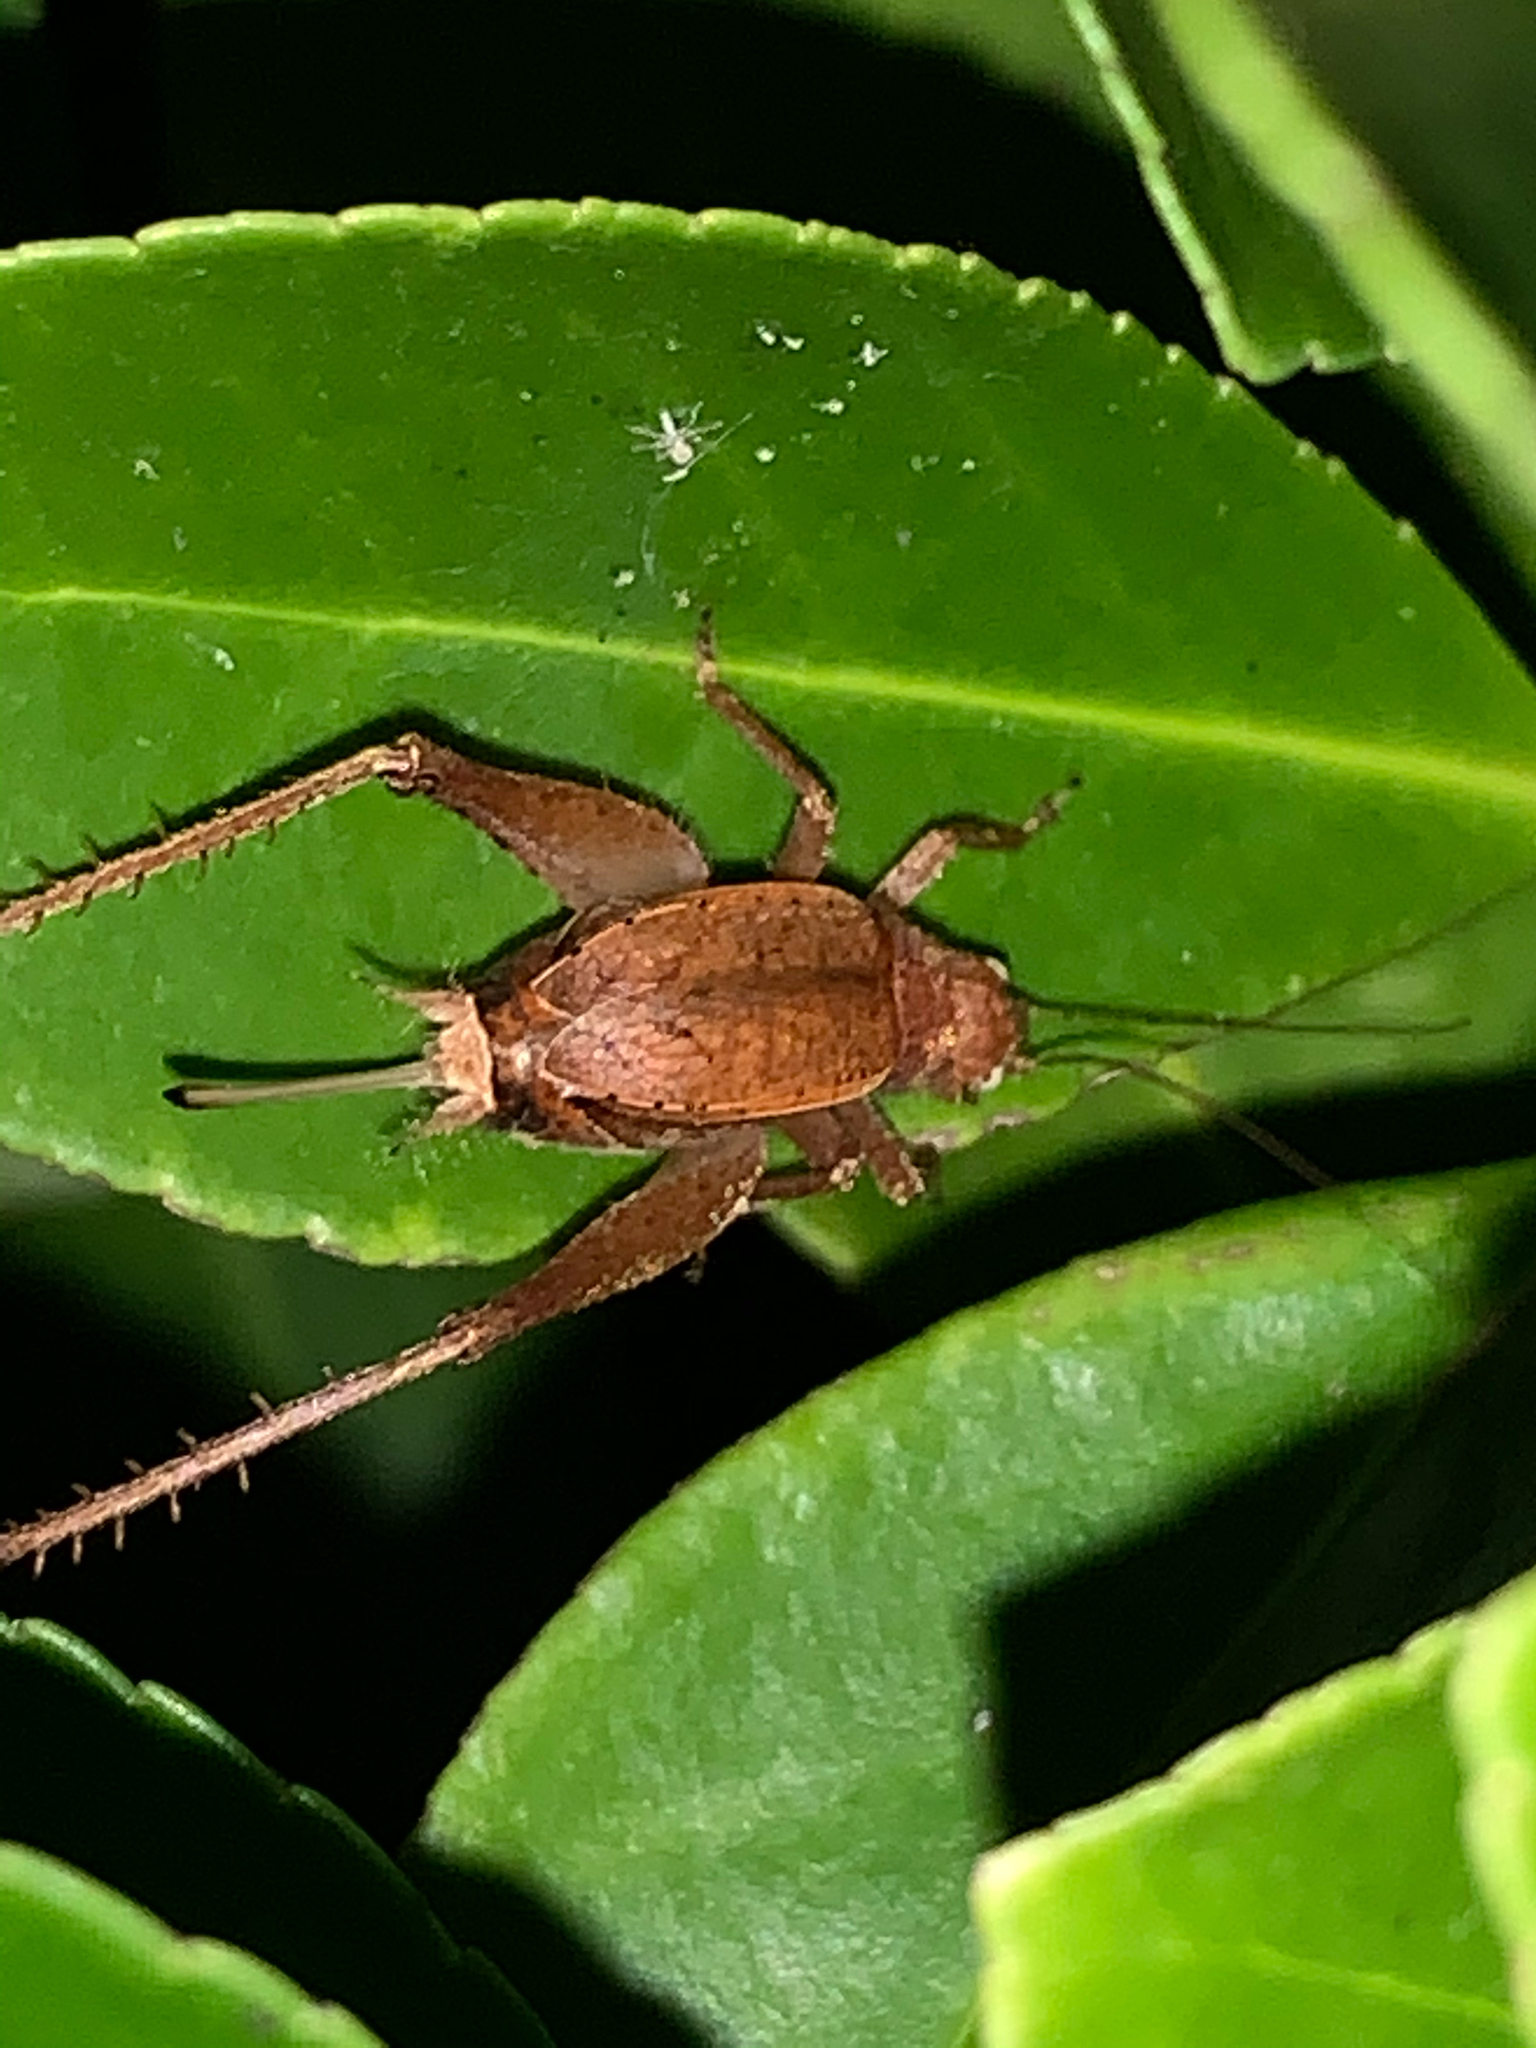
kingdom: Animalia
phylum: Arthropoda
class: Insecta
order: Orthoptera
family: Gryllidae
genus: Hapithus
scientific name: Hapithus agitator
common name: Restless bush cricket
